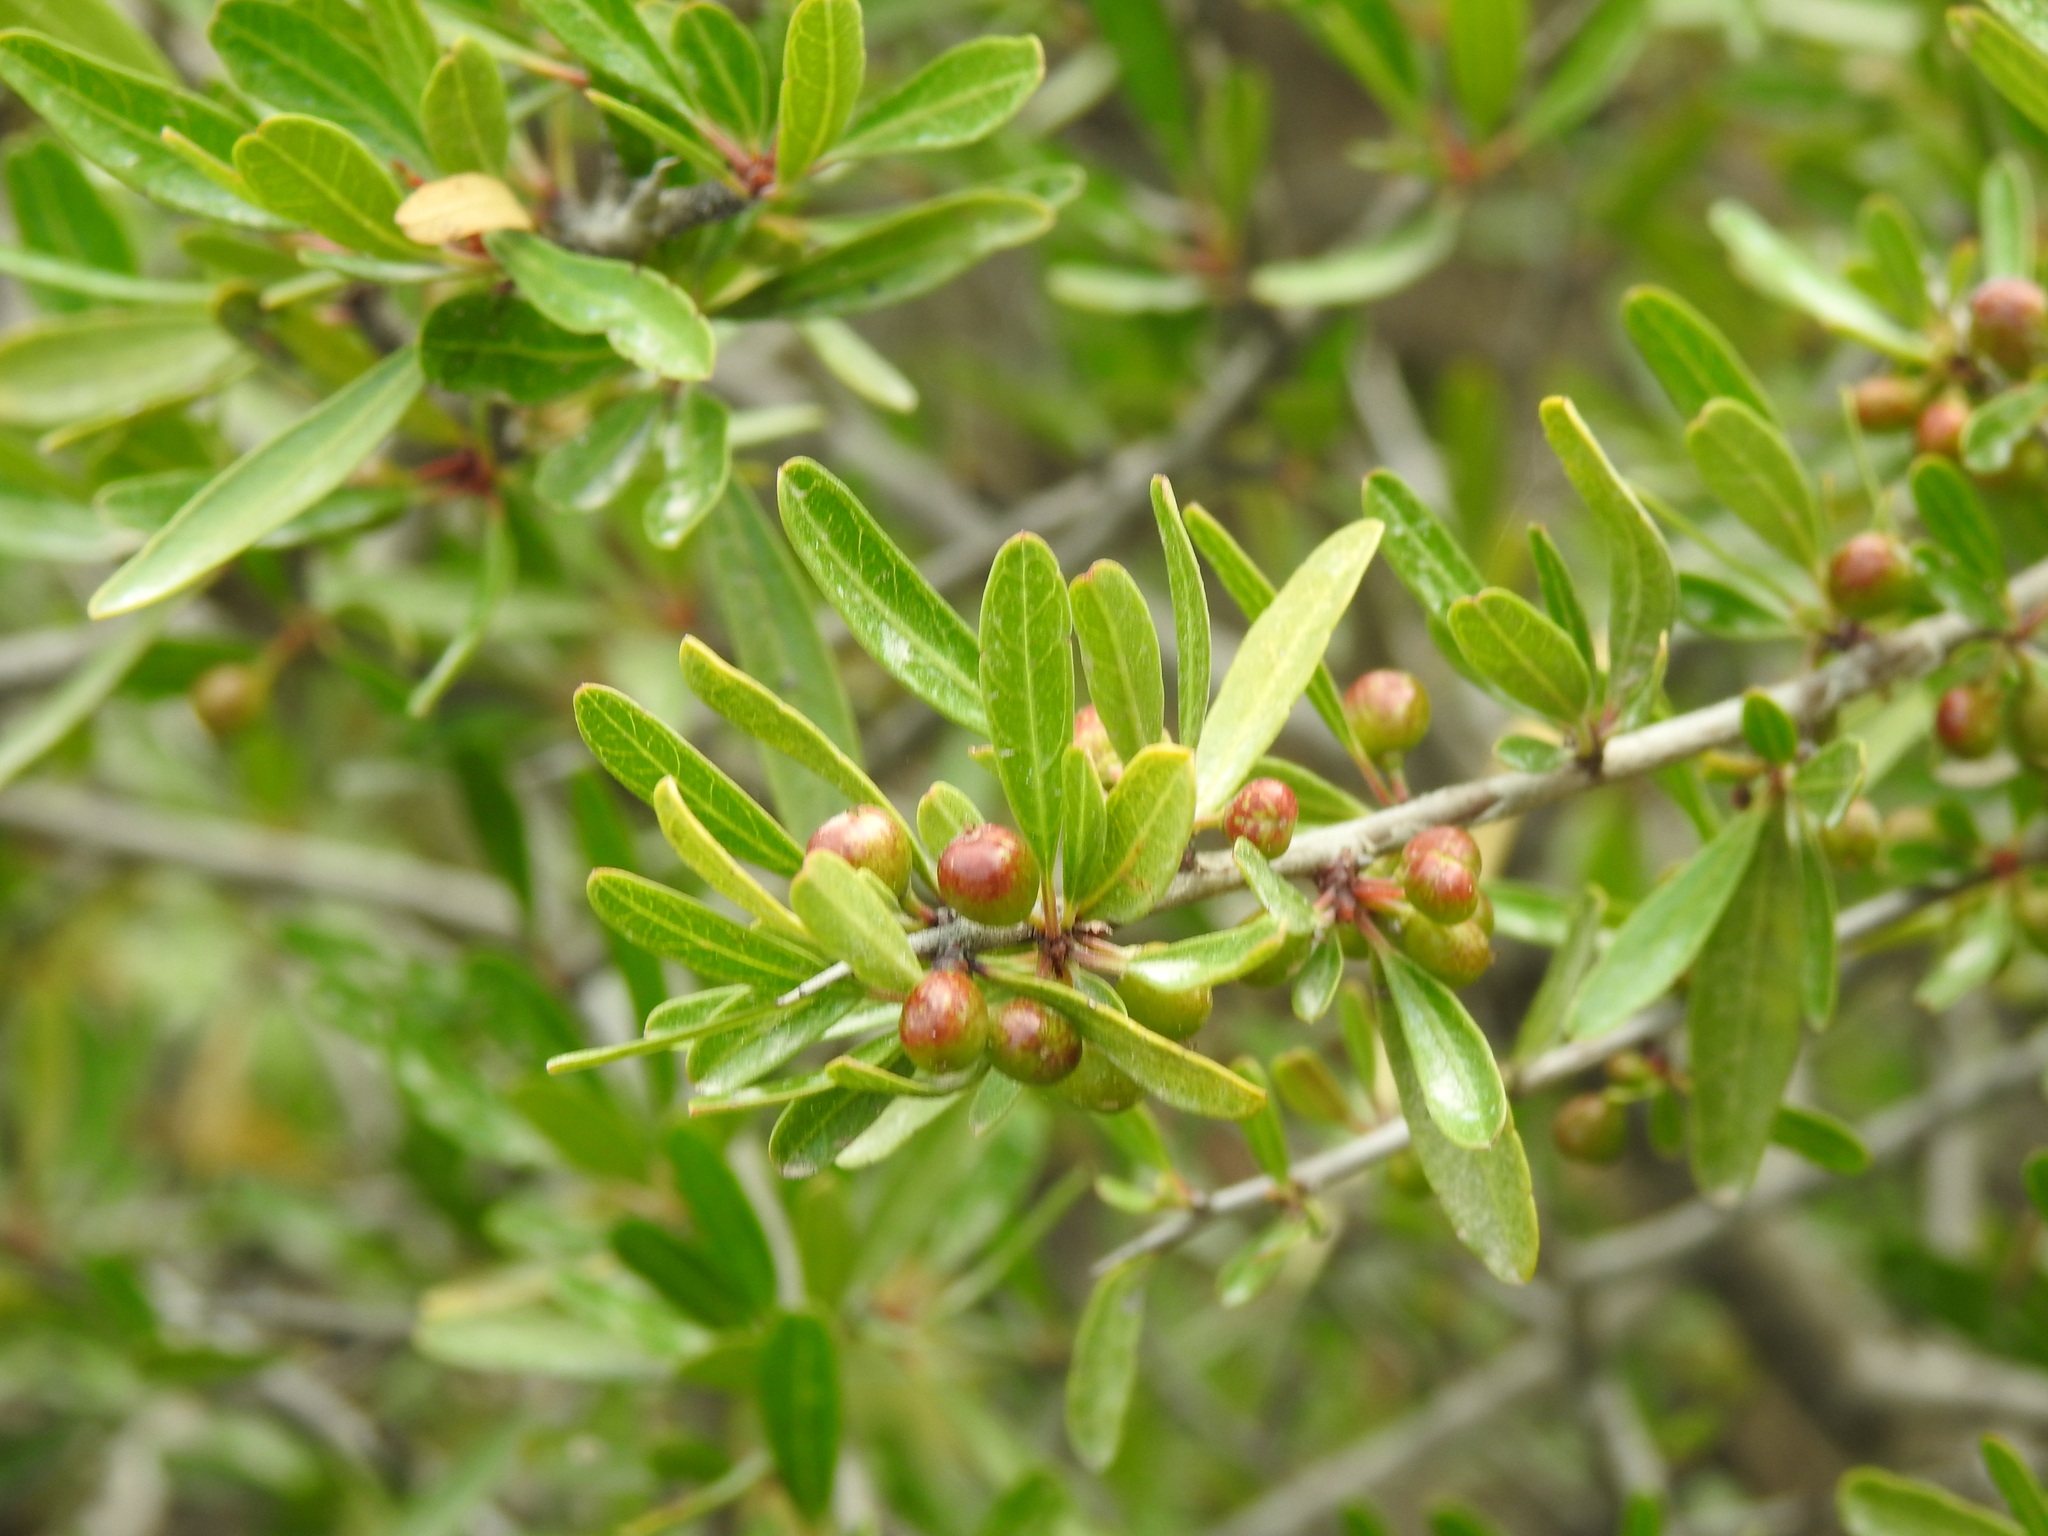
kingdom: Plantae
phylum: Tracheophyta
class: Magnoliopsida
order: Rosales
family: Rhamnaceae
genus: Rhamnus
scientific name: Rhamnus oleoides
